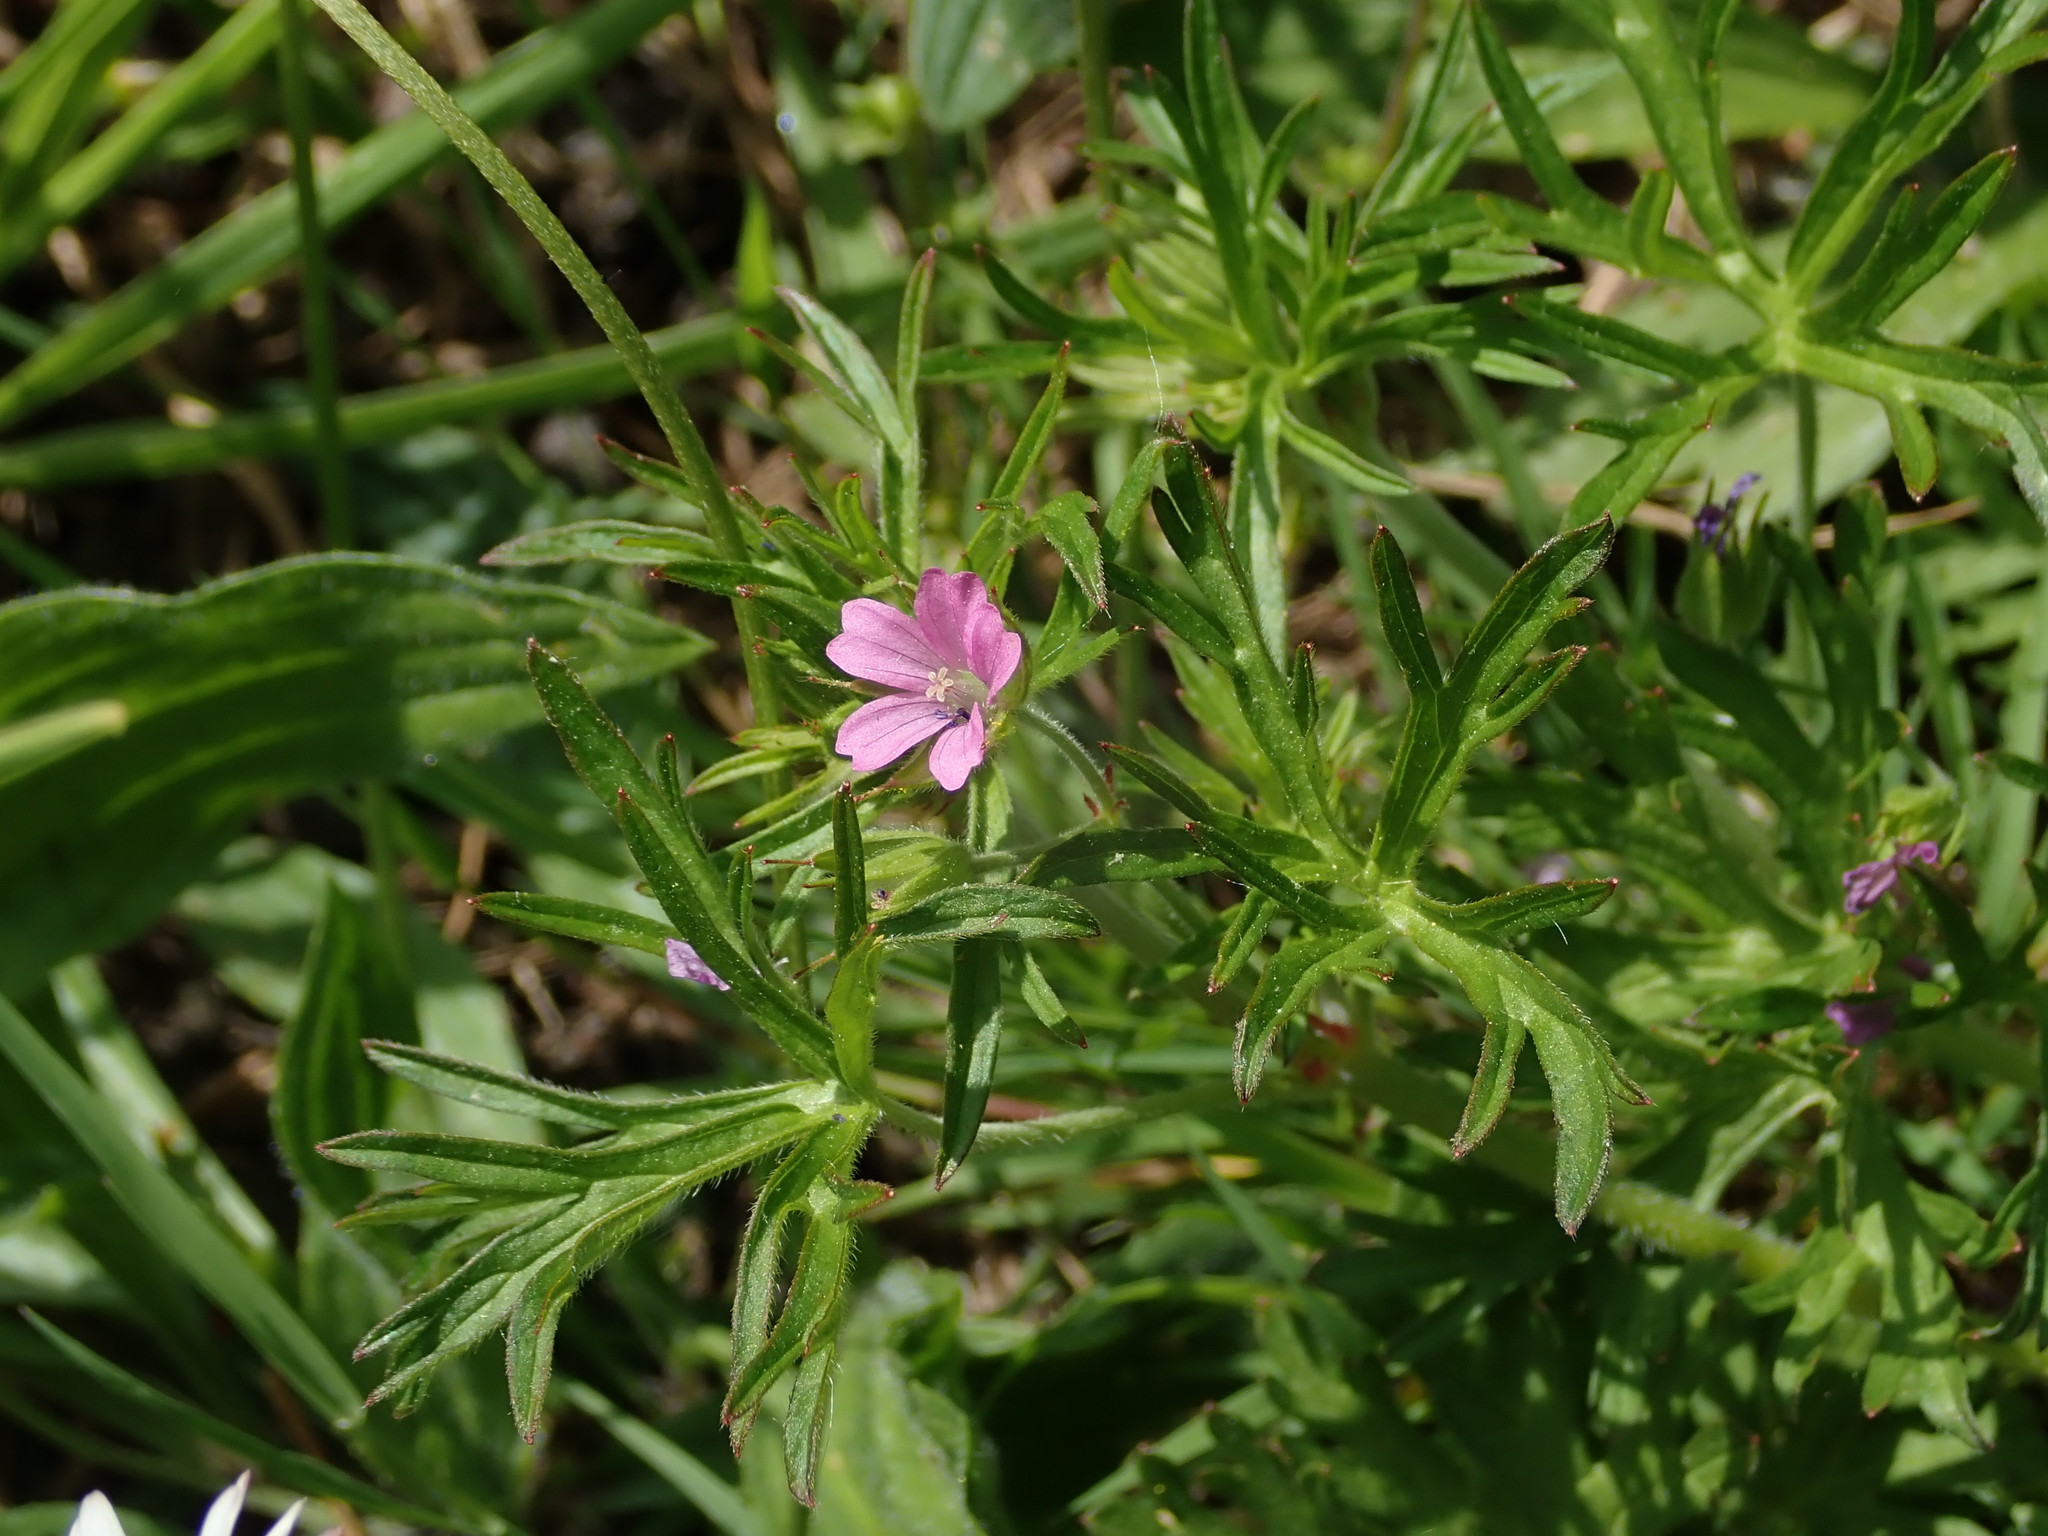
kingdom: Plantae
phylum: Tracheophyta
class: Magnoliopsida
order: Geraniales
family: Geraniaceae
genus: Geranium
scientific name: Geranium dissectum
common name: Cut-leaved crane's-bill
